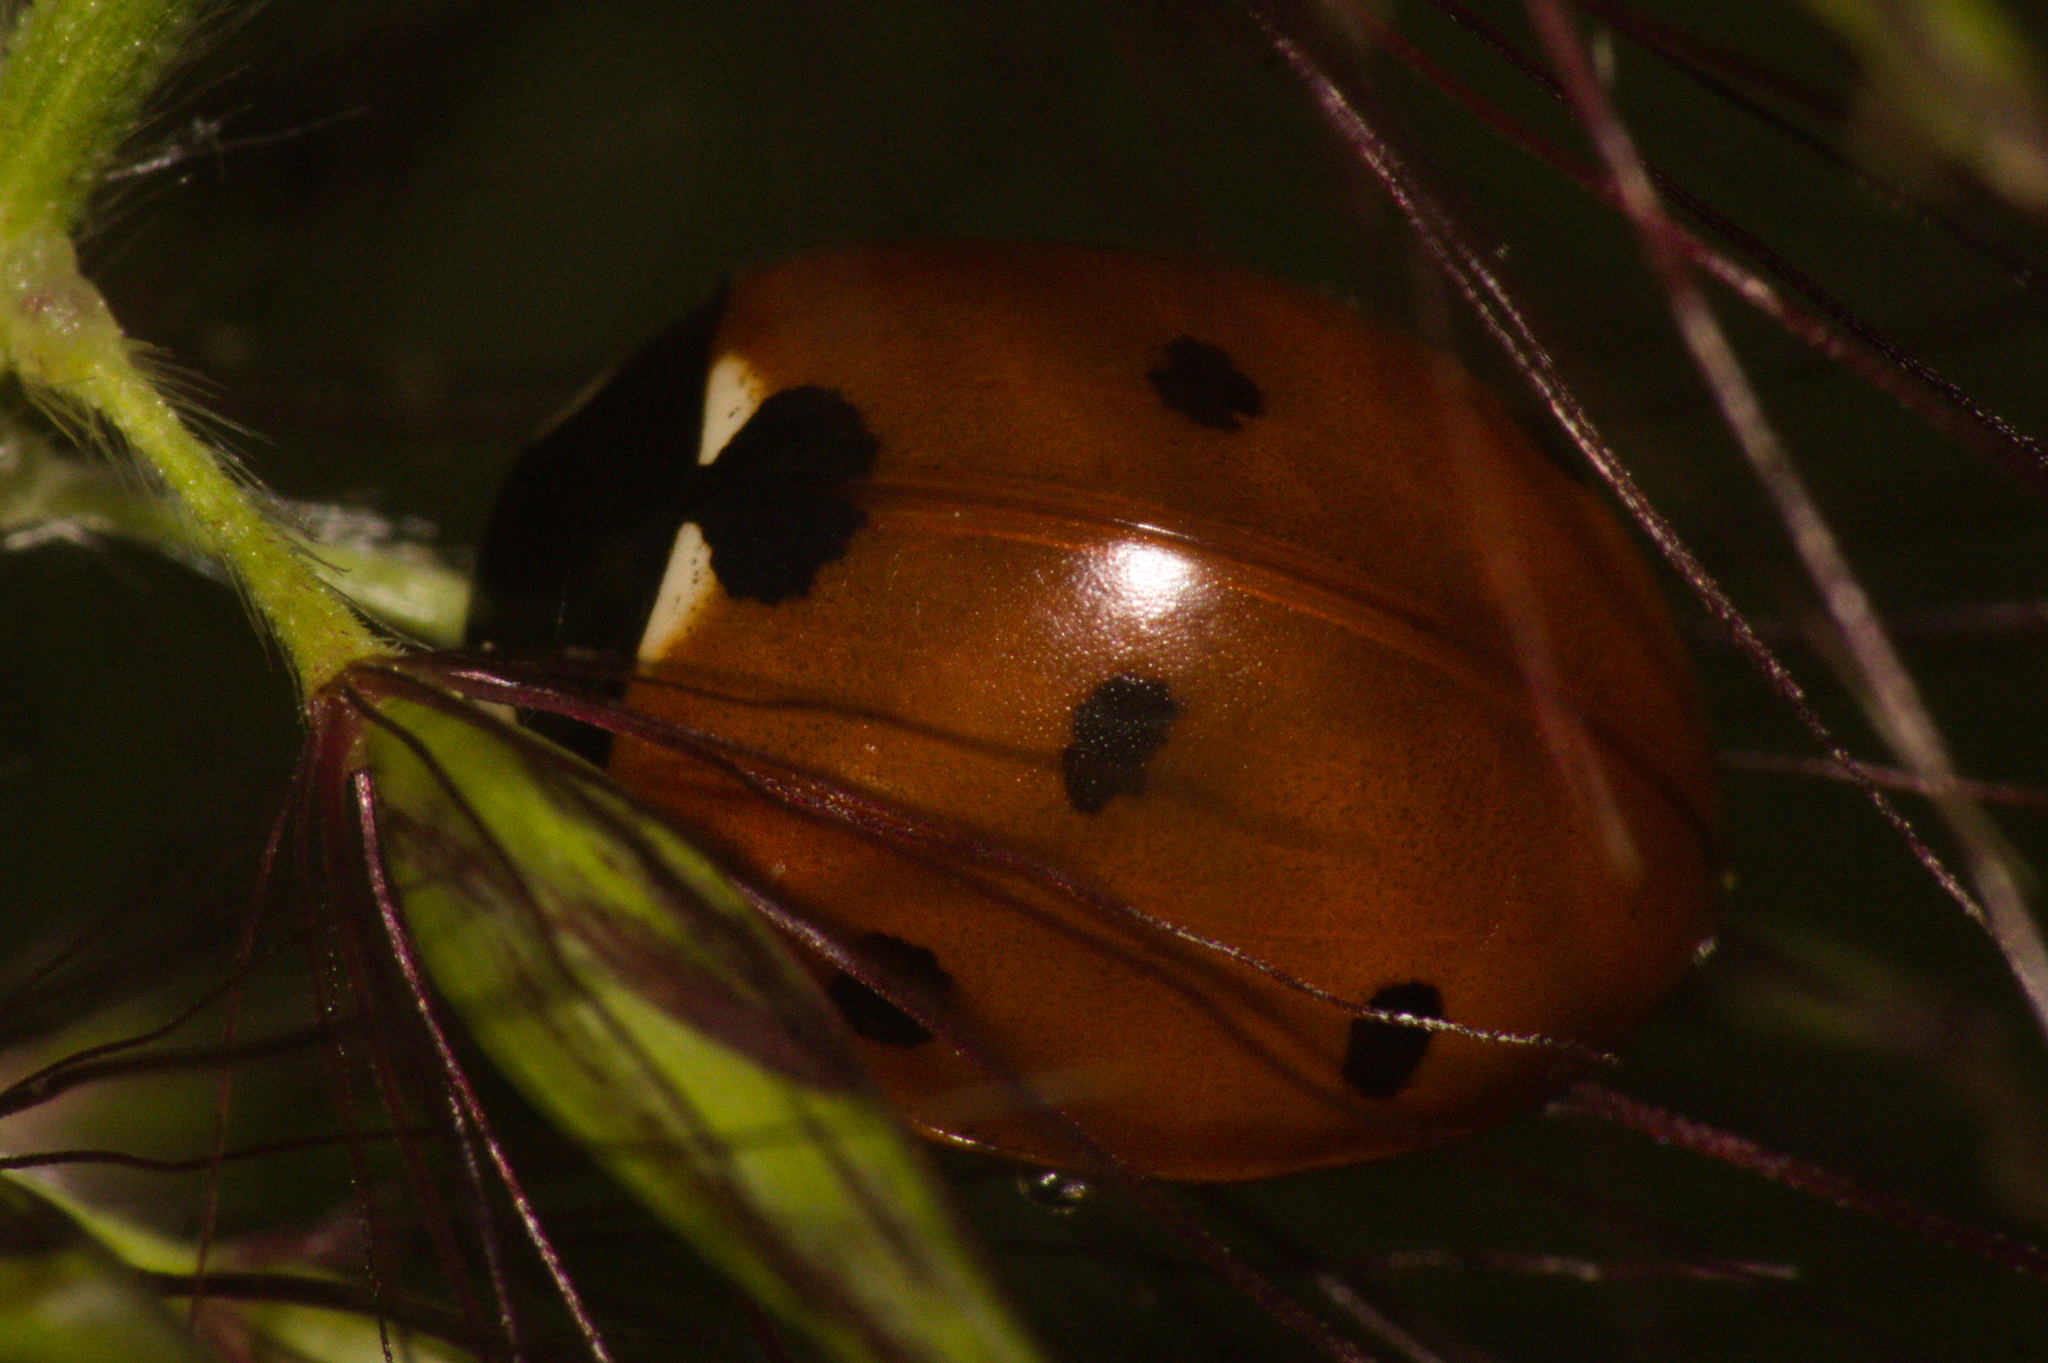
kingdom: Animalia
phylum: Arthropoda
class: Insecta
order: Coleoptera
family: Coccinellidae
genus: Coccinella
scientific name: Coccinella septempunctata
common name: Sevenspotted lady beetle
